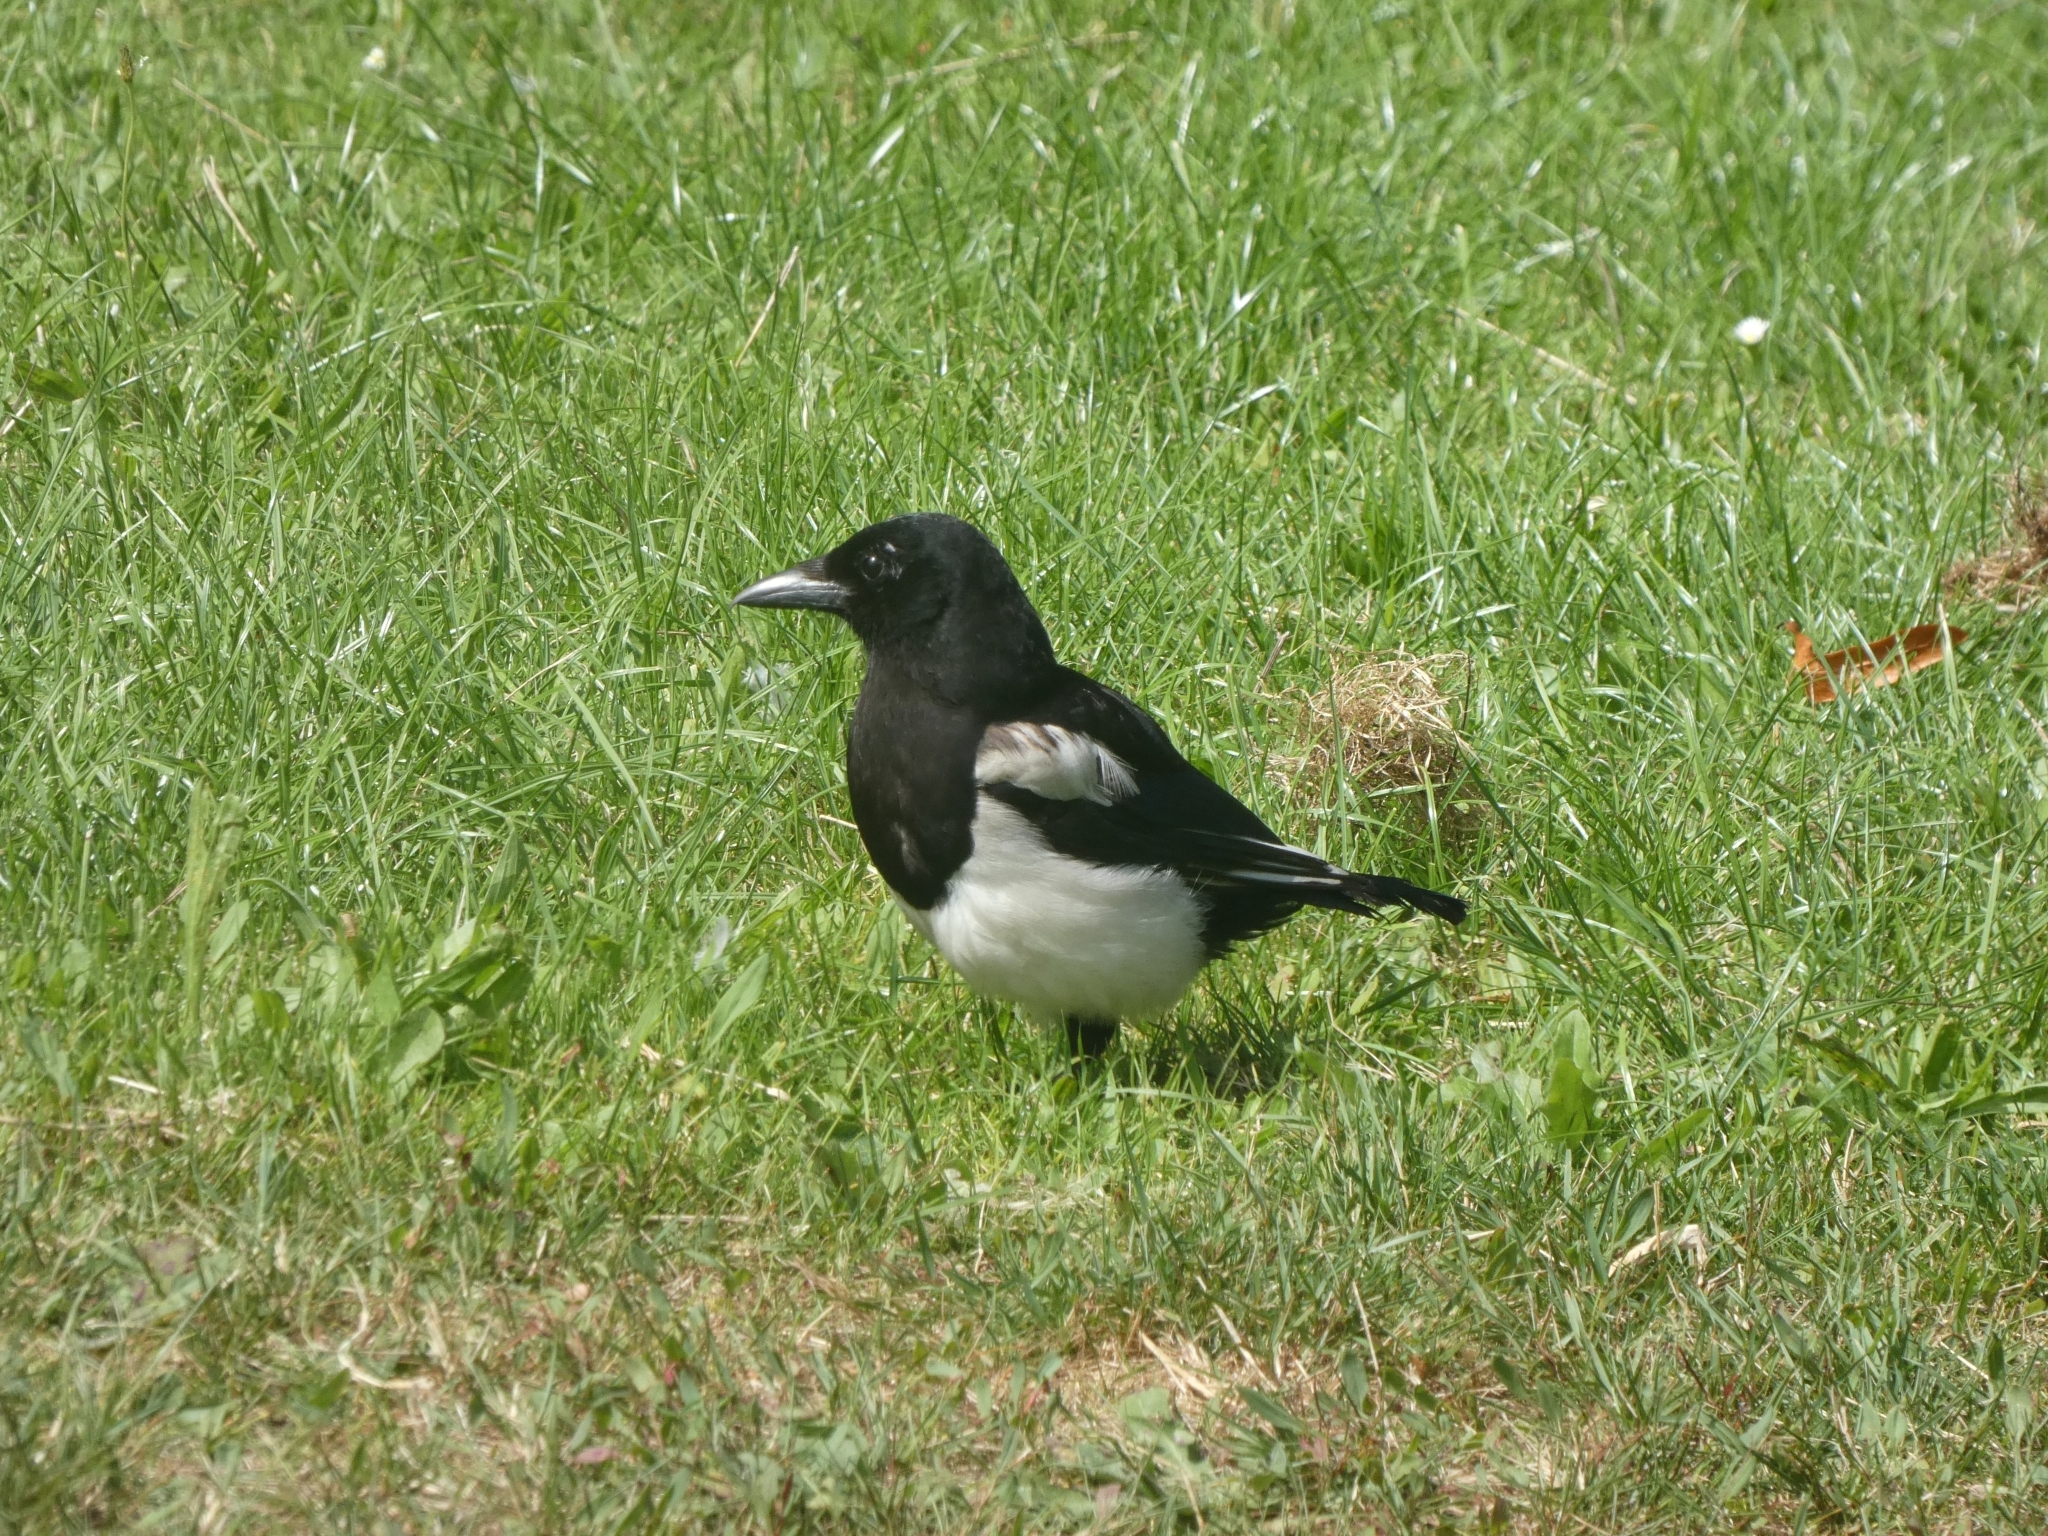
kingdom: Animalia
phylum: Chordata
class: Aves
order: Passeriformes
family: Corvidae
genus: Pica
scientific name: Pica pica
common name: Eurasian magpie
